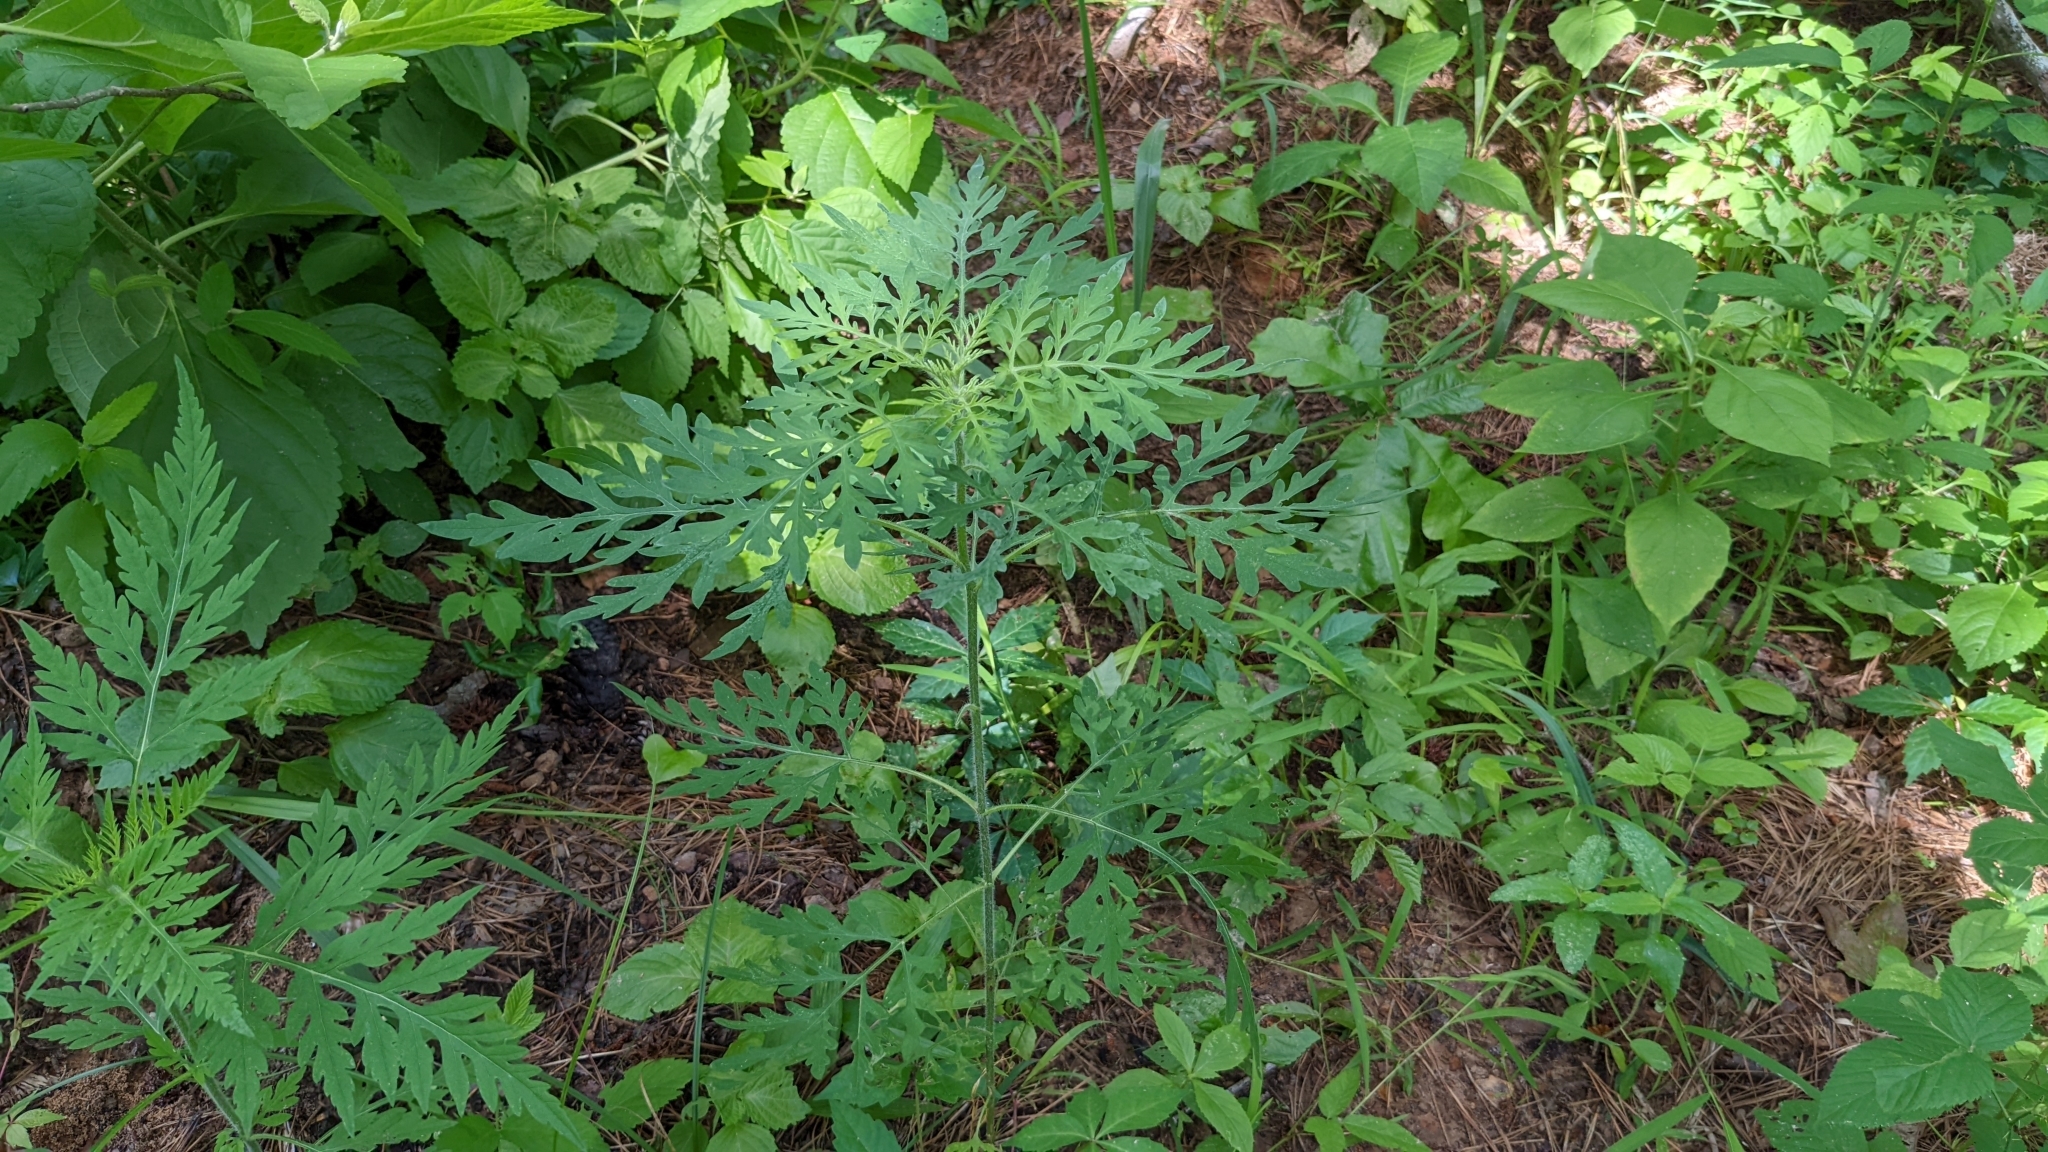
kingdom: Plantae
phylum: Tracheophyta
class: Magnoliopsida
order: Asterales
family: Asteraceae
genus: Ambrosia
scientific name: Ambrosia artemisiifolia
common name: Annual ragweed
